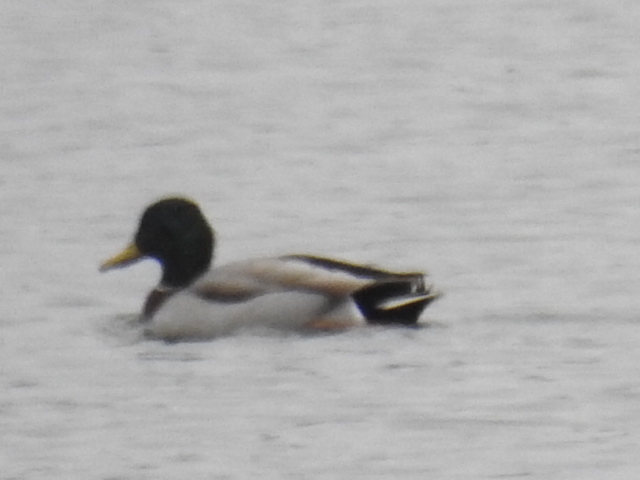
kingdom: Animalia
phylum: Chordata
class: Aves
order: Anseriformes
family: Anatidae
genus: Anas
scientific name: Anas platyrhynchos
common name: Mallard
